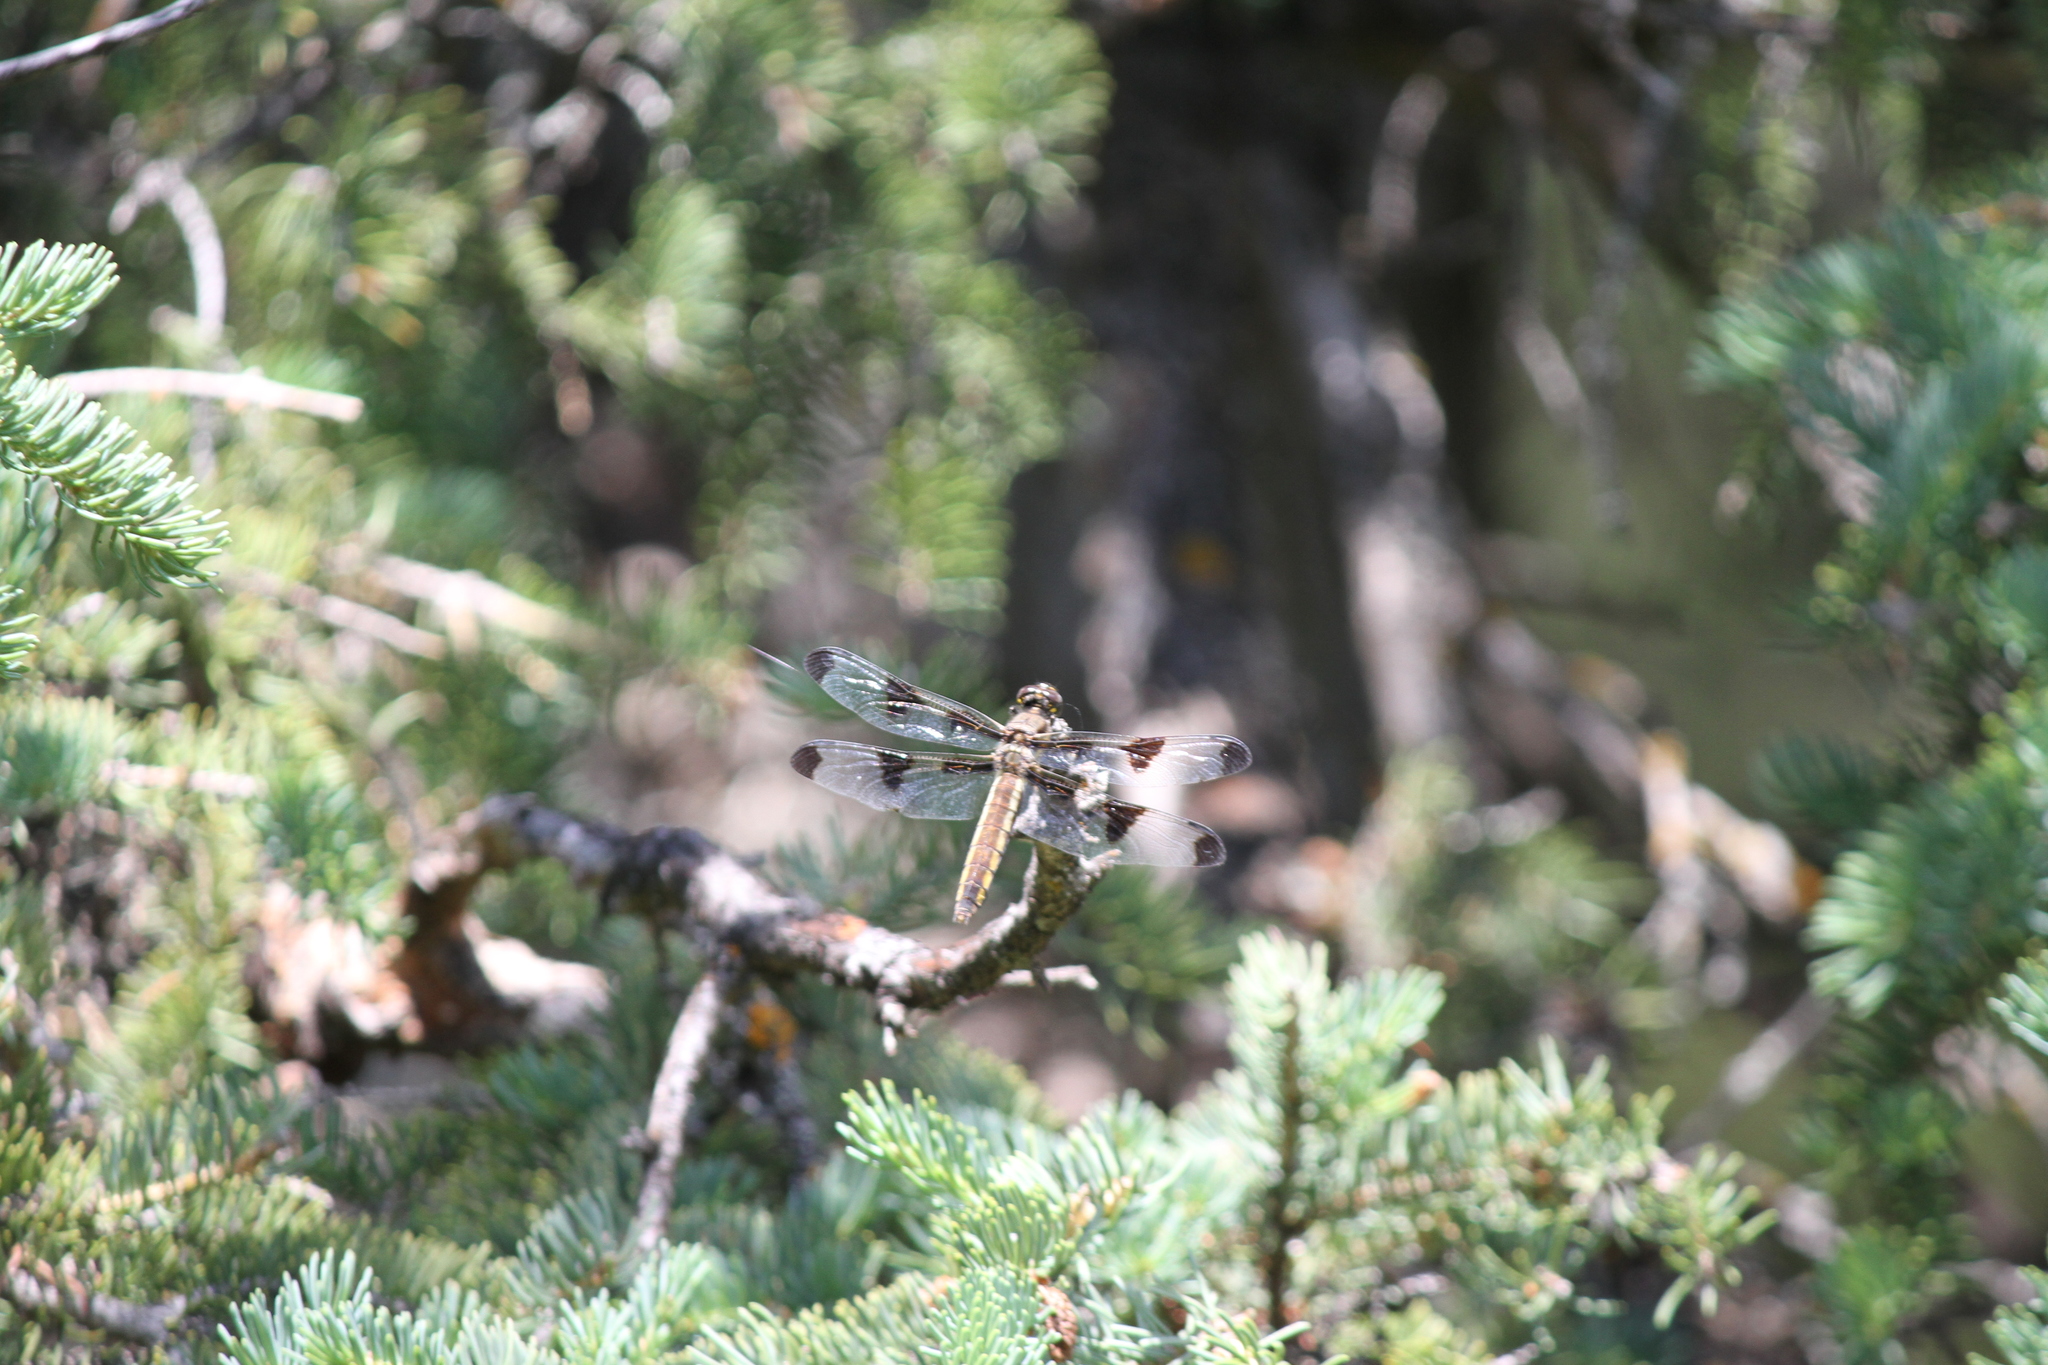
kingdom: Animalia
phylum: Arthropoda
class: Insecta
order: Odonata
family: Libellulidae
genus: Libellula
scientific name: Libellula pulchella
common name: Twelve-spotted skimmer
